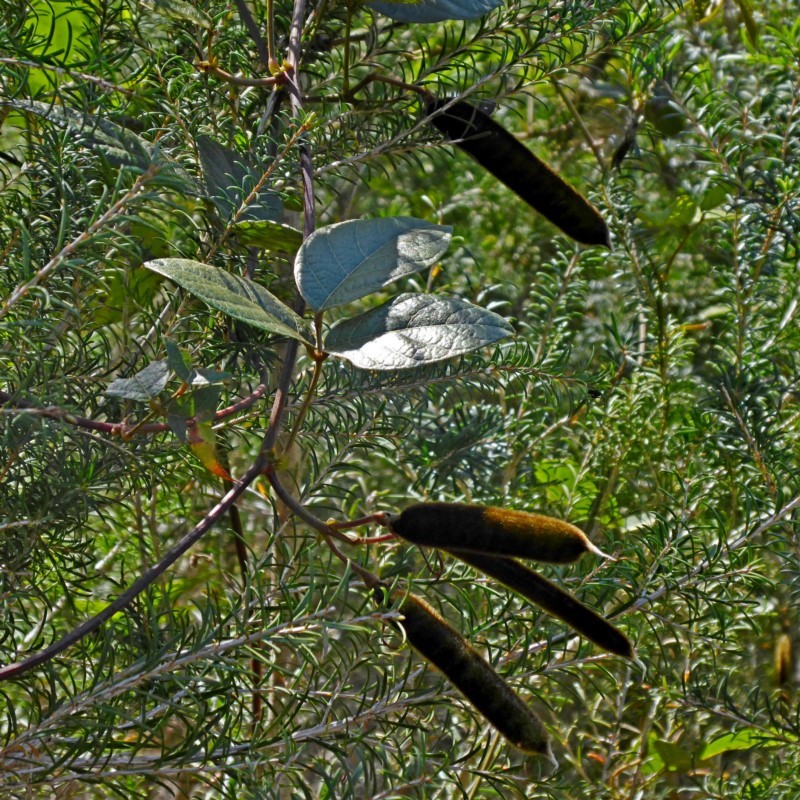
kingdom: Plantae
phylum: Tracheophyta
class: Magnoliopsida
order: Fabales
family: Fabaceae
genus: Kennedia
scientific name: Kennedia rubicunda
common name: Red kennedy-pea
